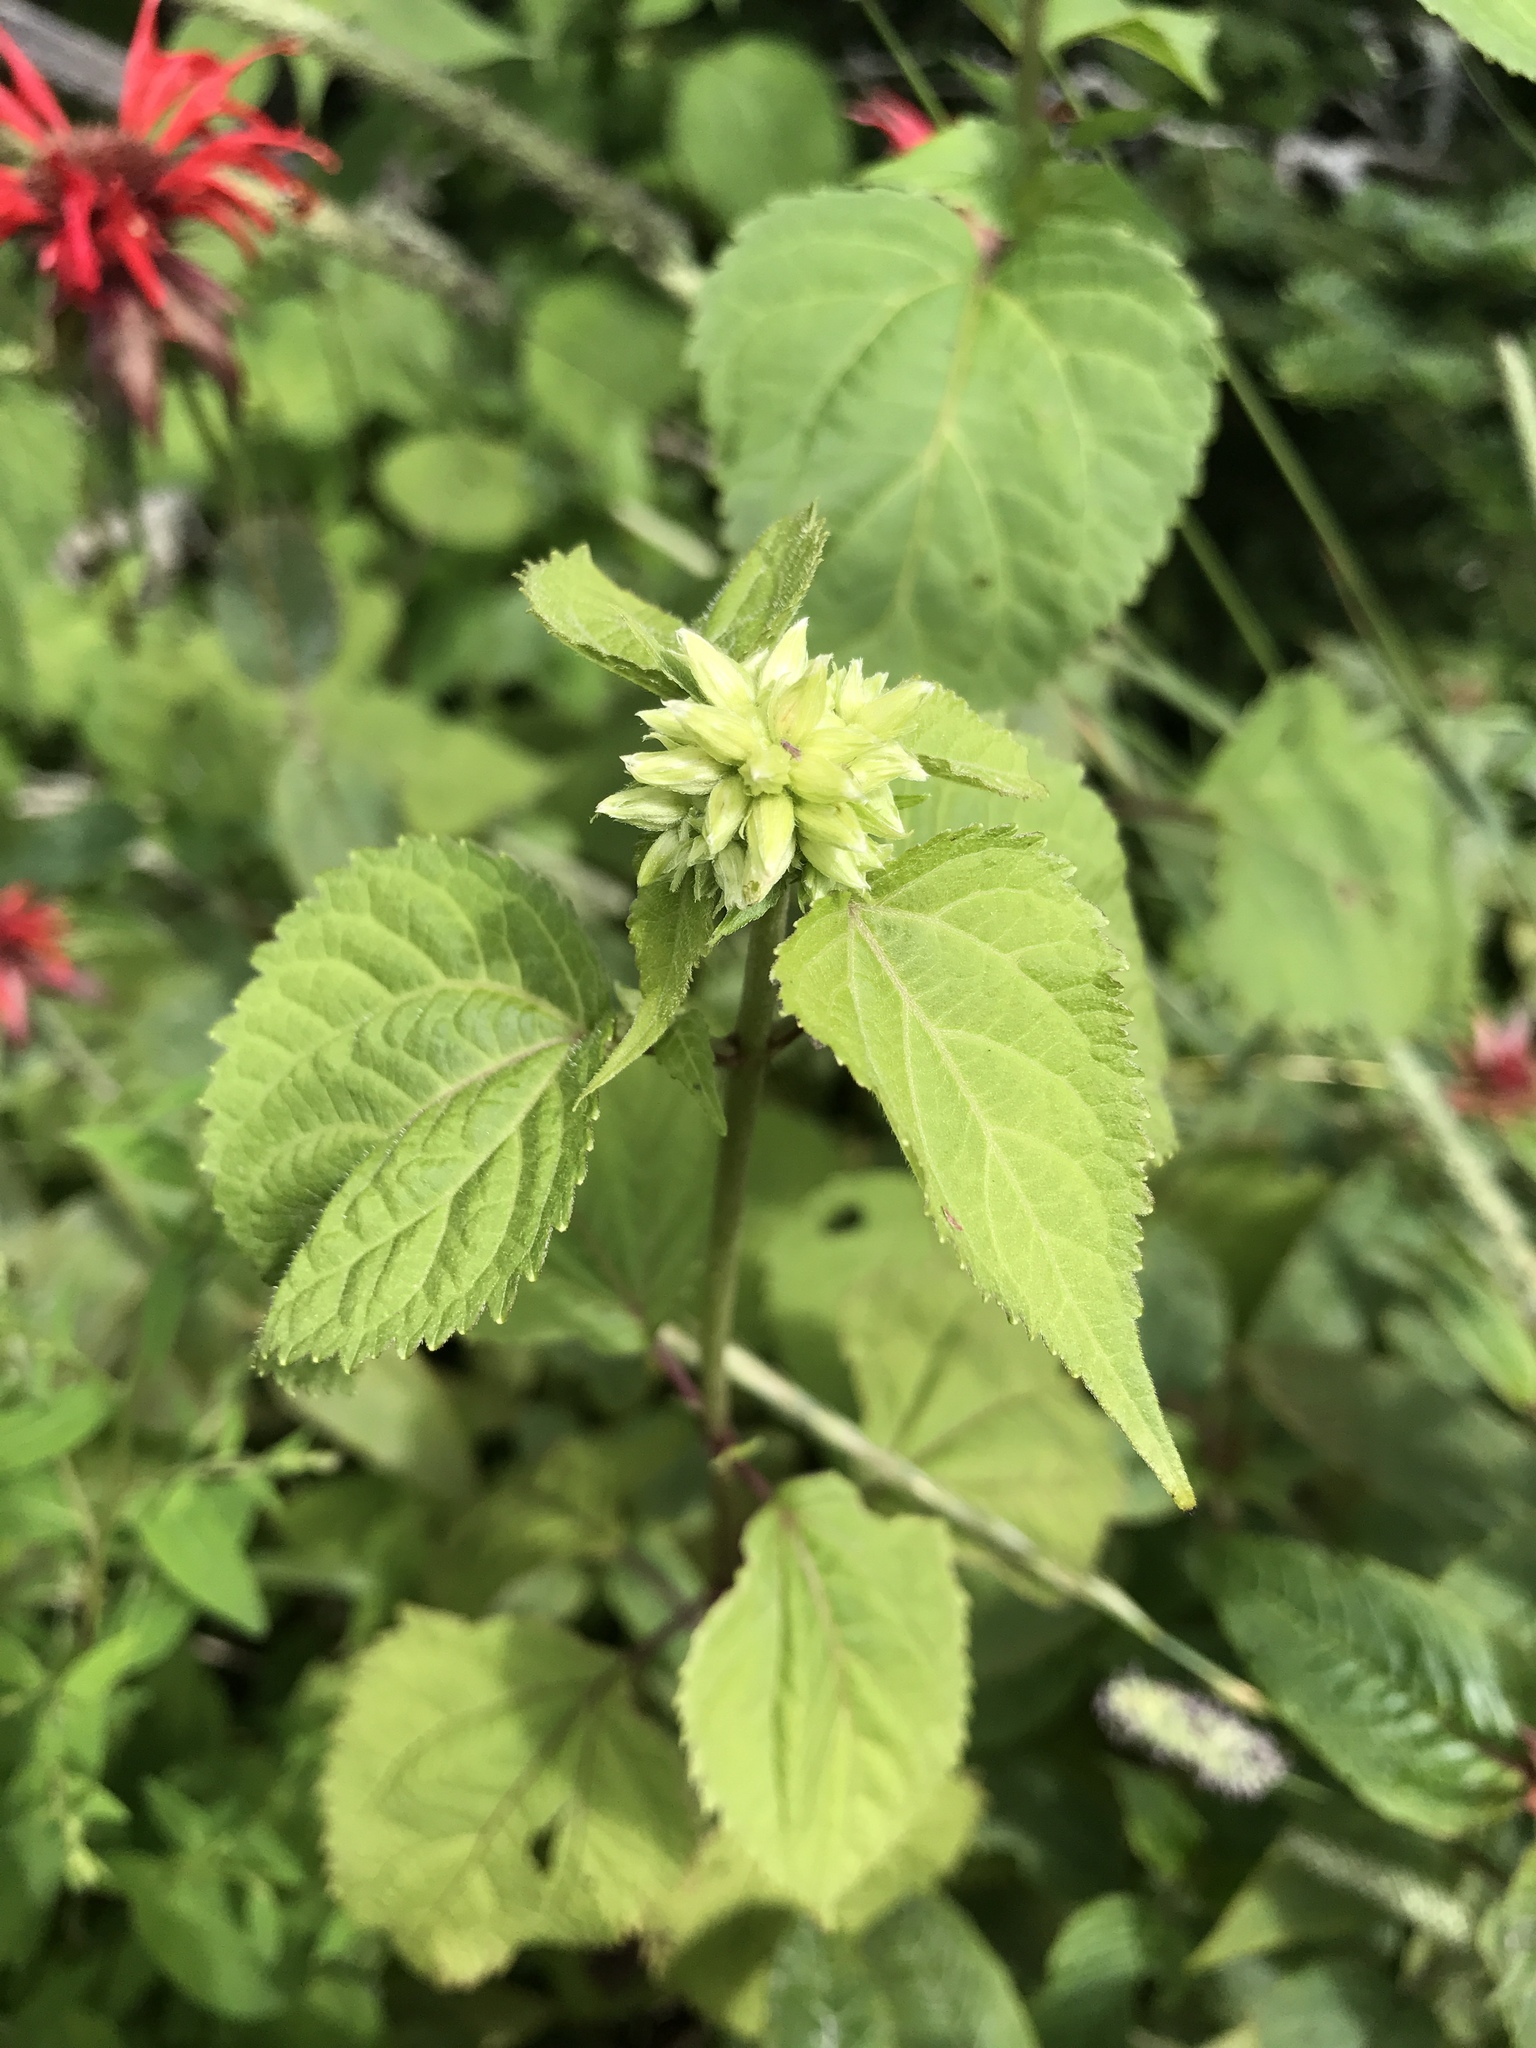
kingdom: Plantae
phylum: Tracheophyta
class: Magnoliopsida
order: Asterales
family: Asteraceae
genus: Ageratina
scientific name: Ageratina roanensis
